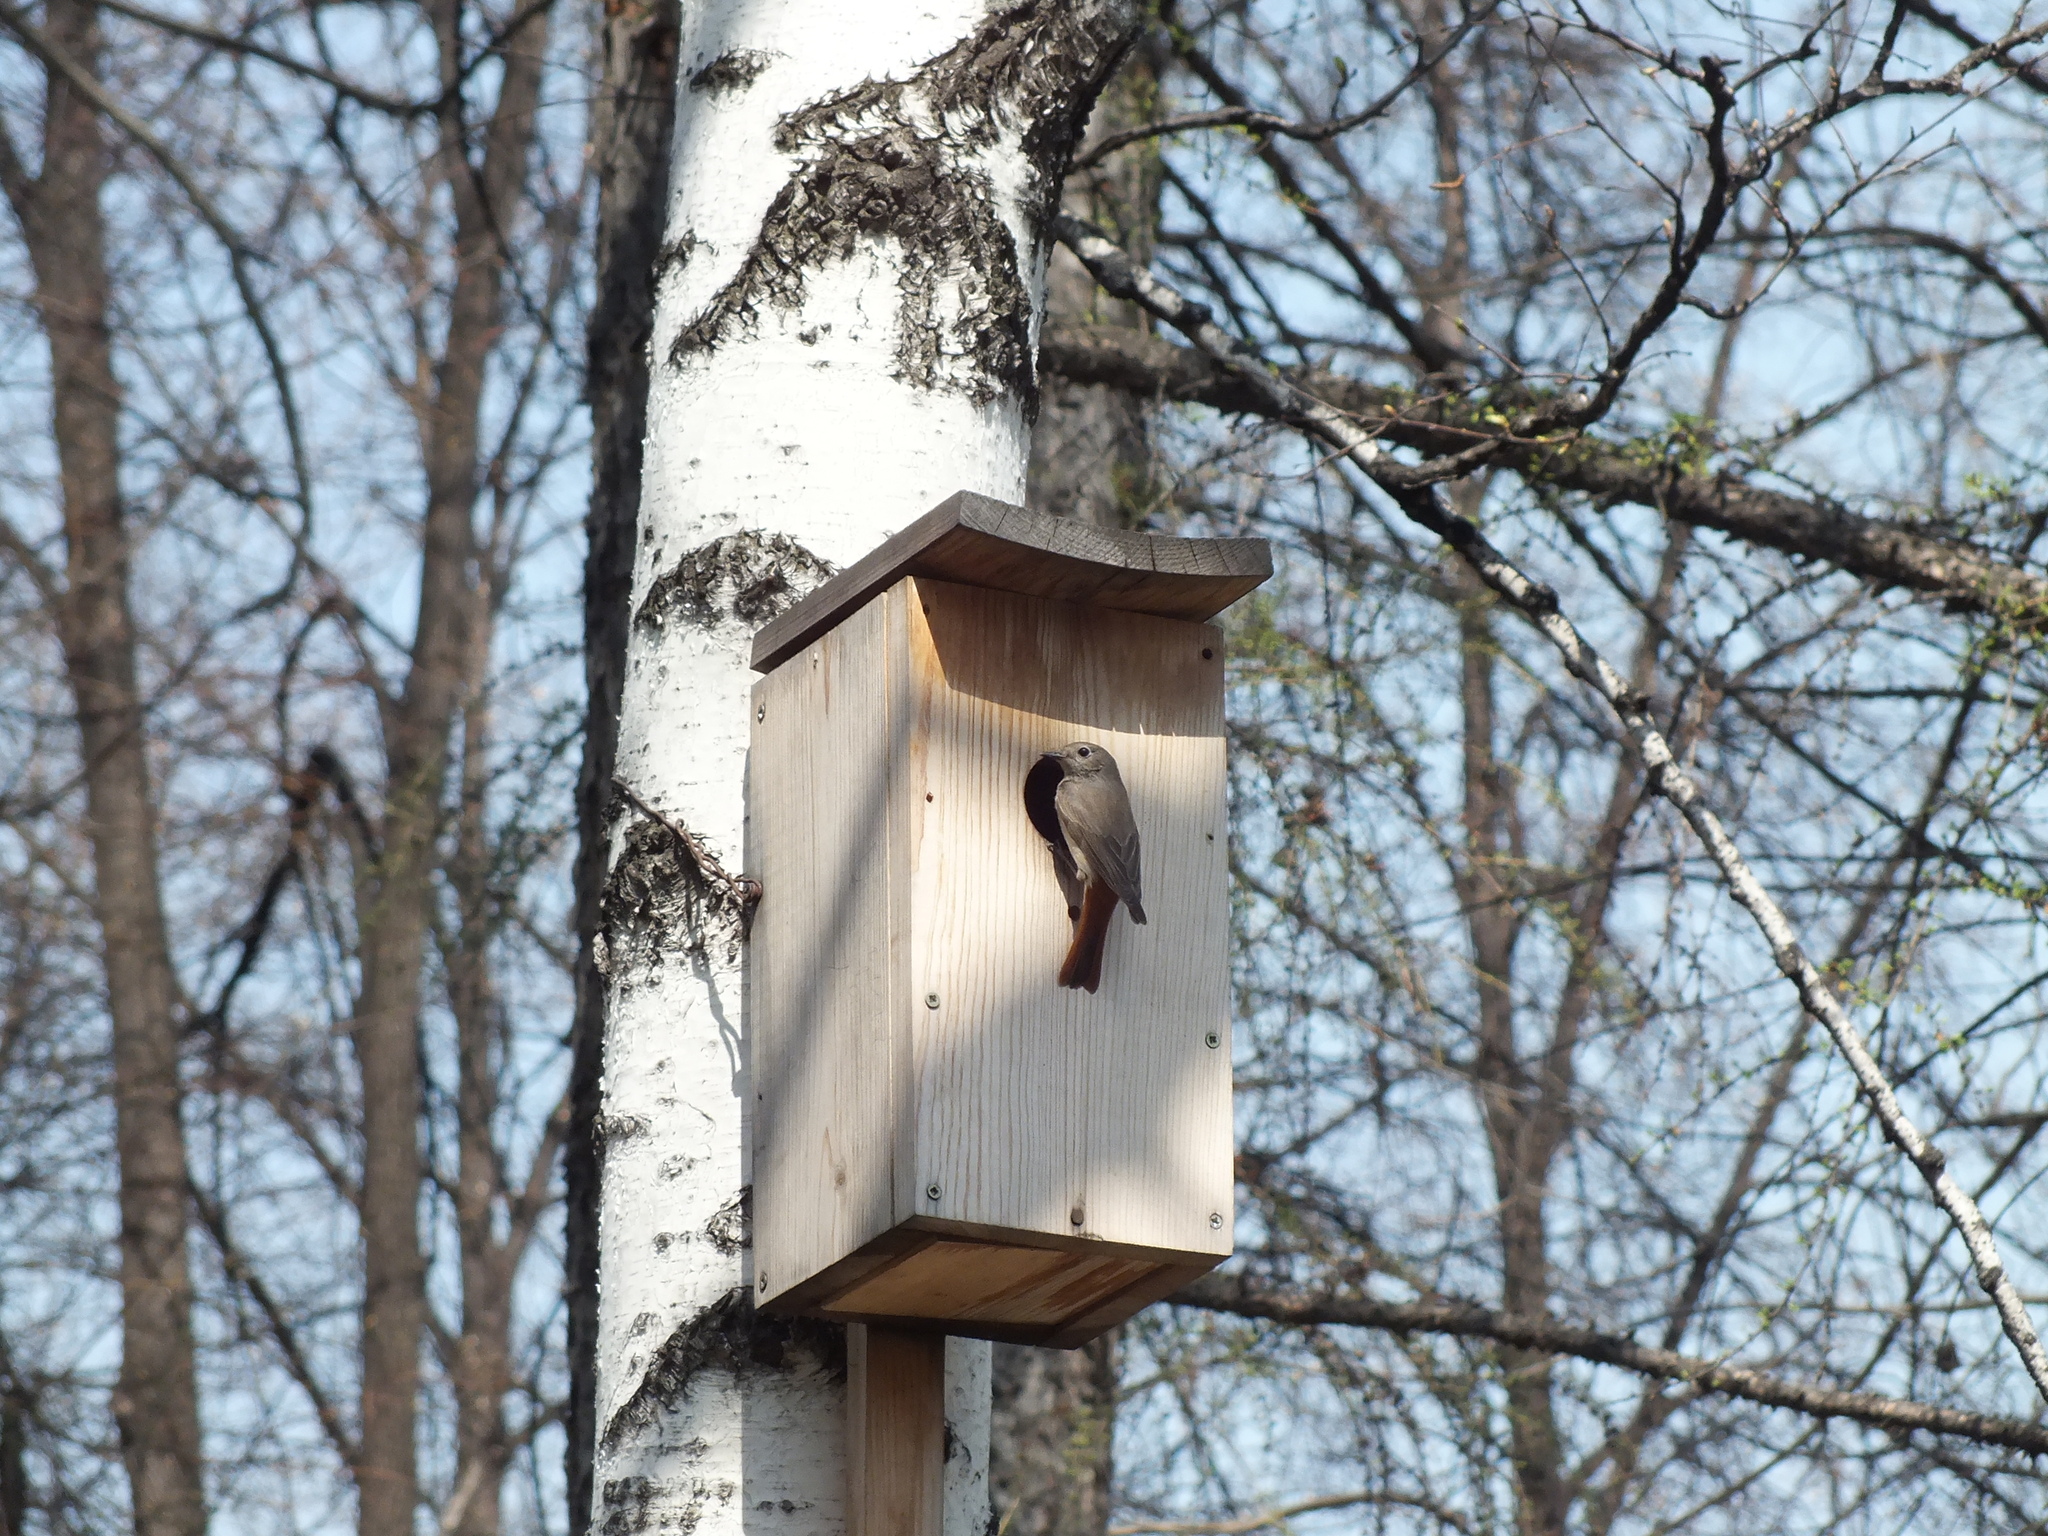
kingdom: Animalia
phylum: Chordata
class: Aves
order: Passeriformes
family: Muscicapidae
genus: Phoenicurus
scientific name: Phoenicurus phoenicurus
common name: Common redstart
